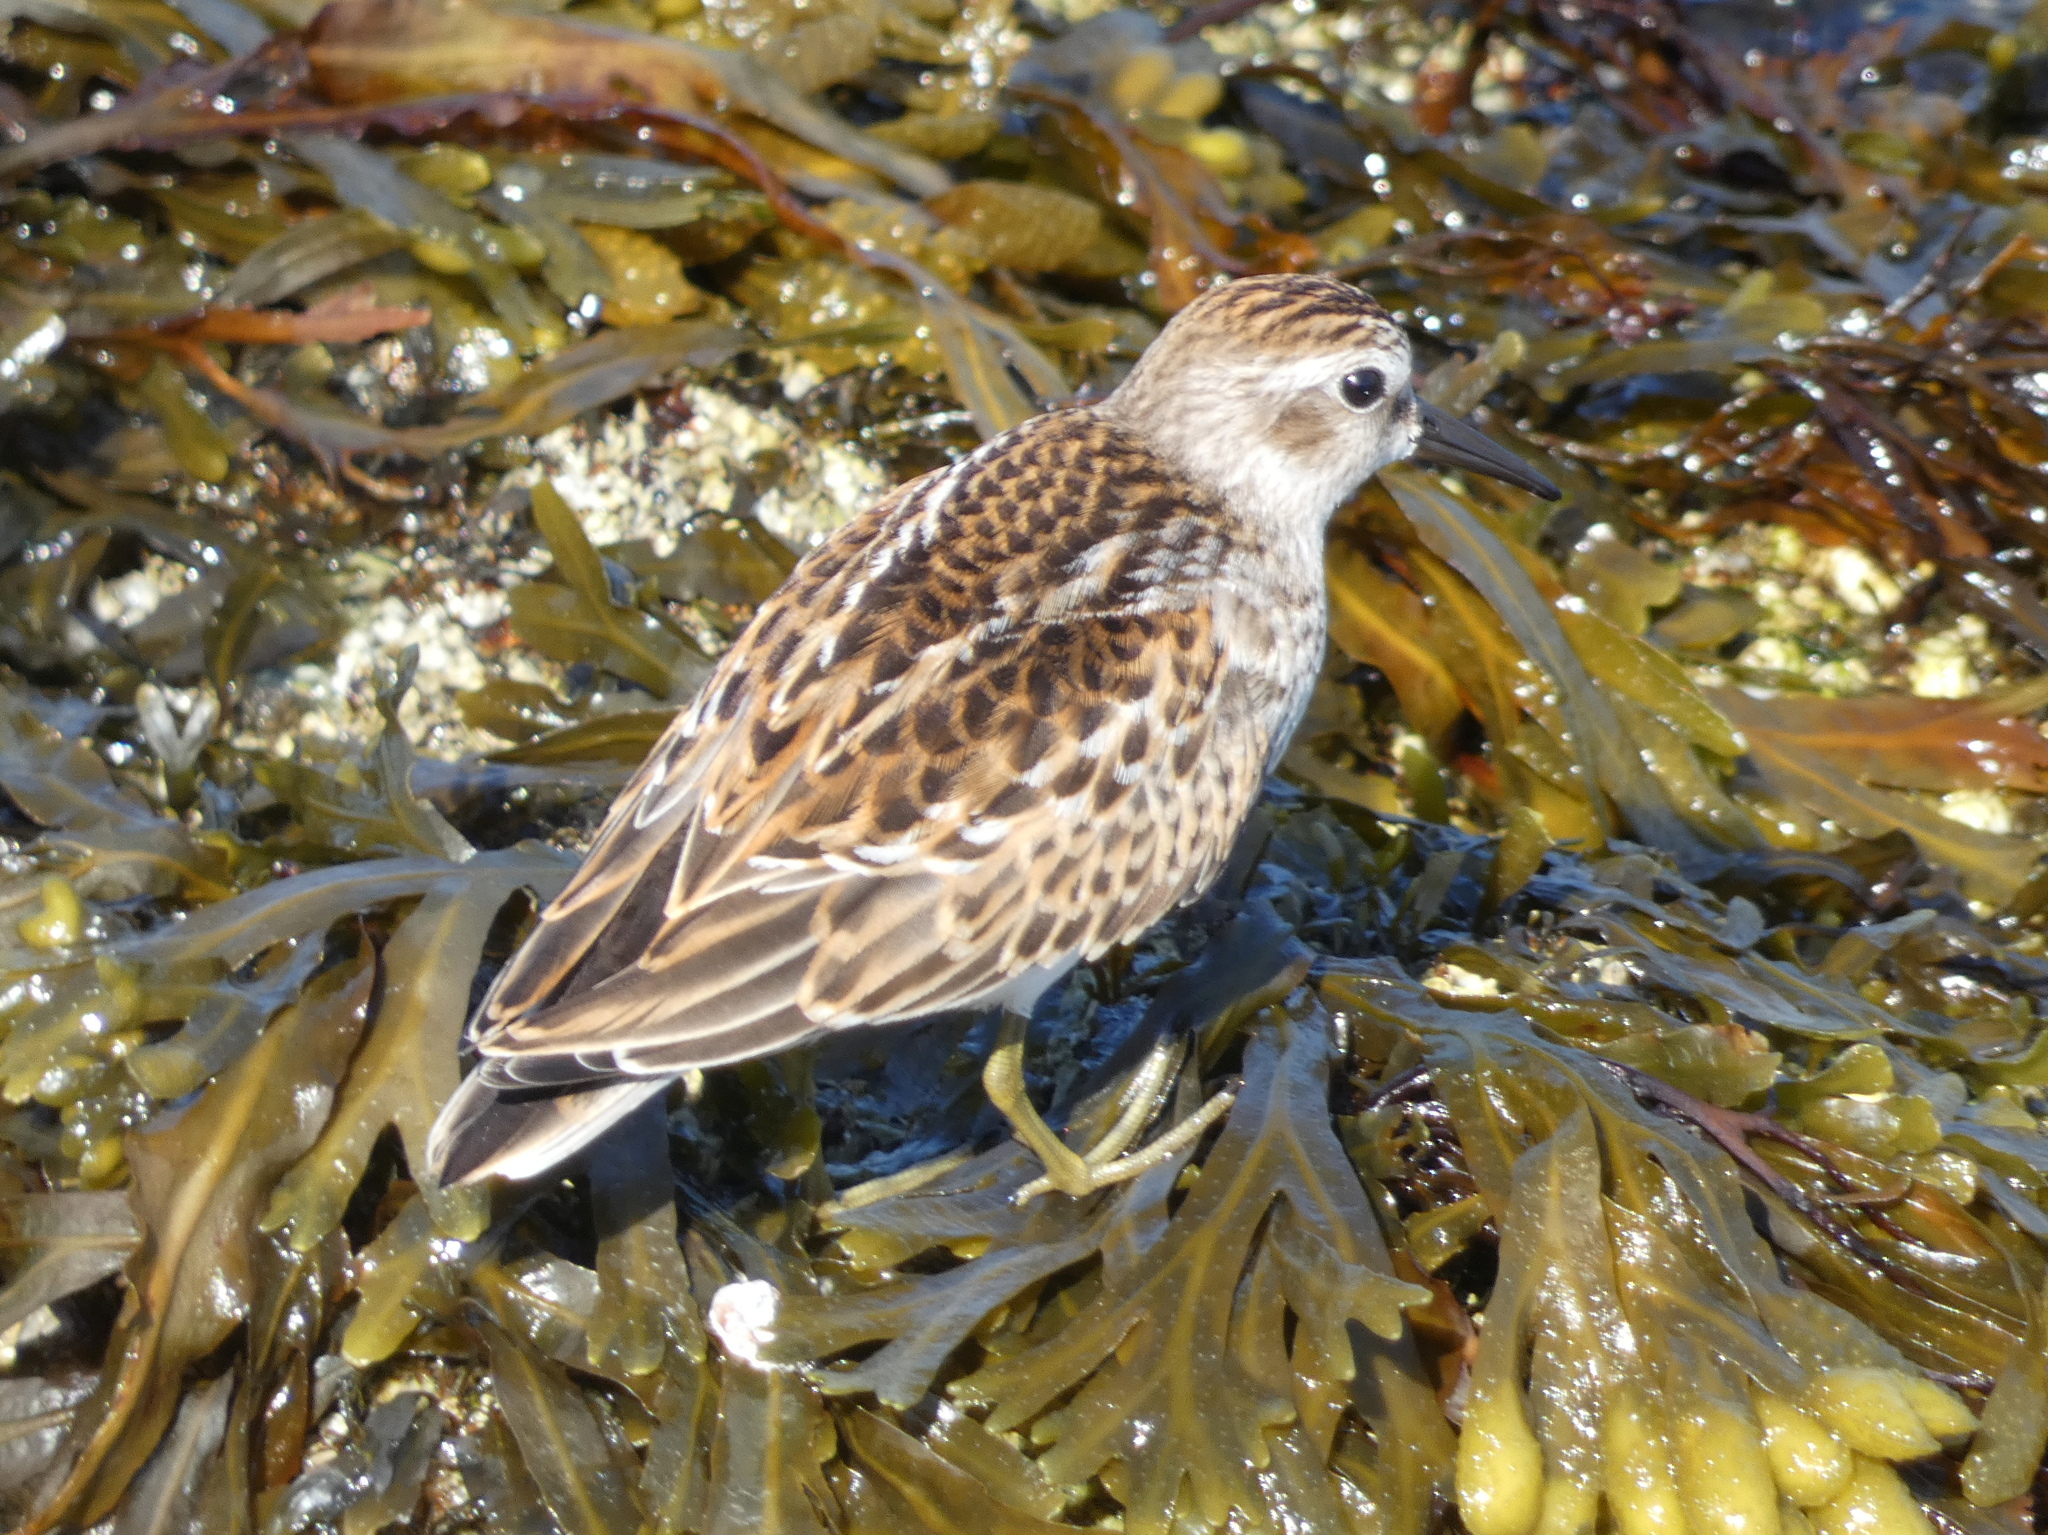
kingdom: Animalia
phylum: Chordata
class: Aves
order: Charadriiformes
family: Scolopacidae
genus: Calidris
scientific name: Calidris minutilla
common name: Least sandpiper
